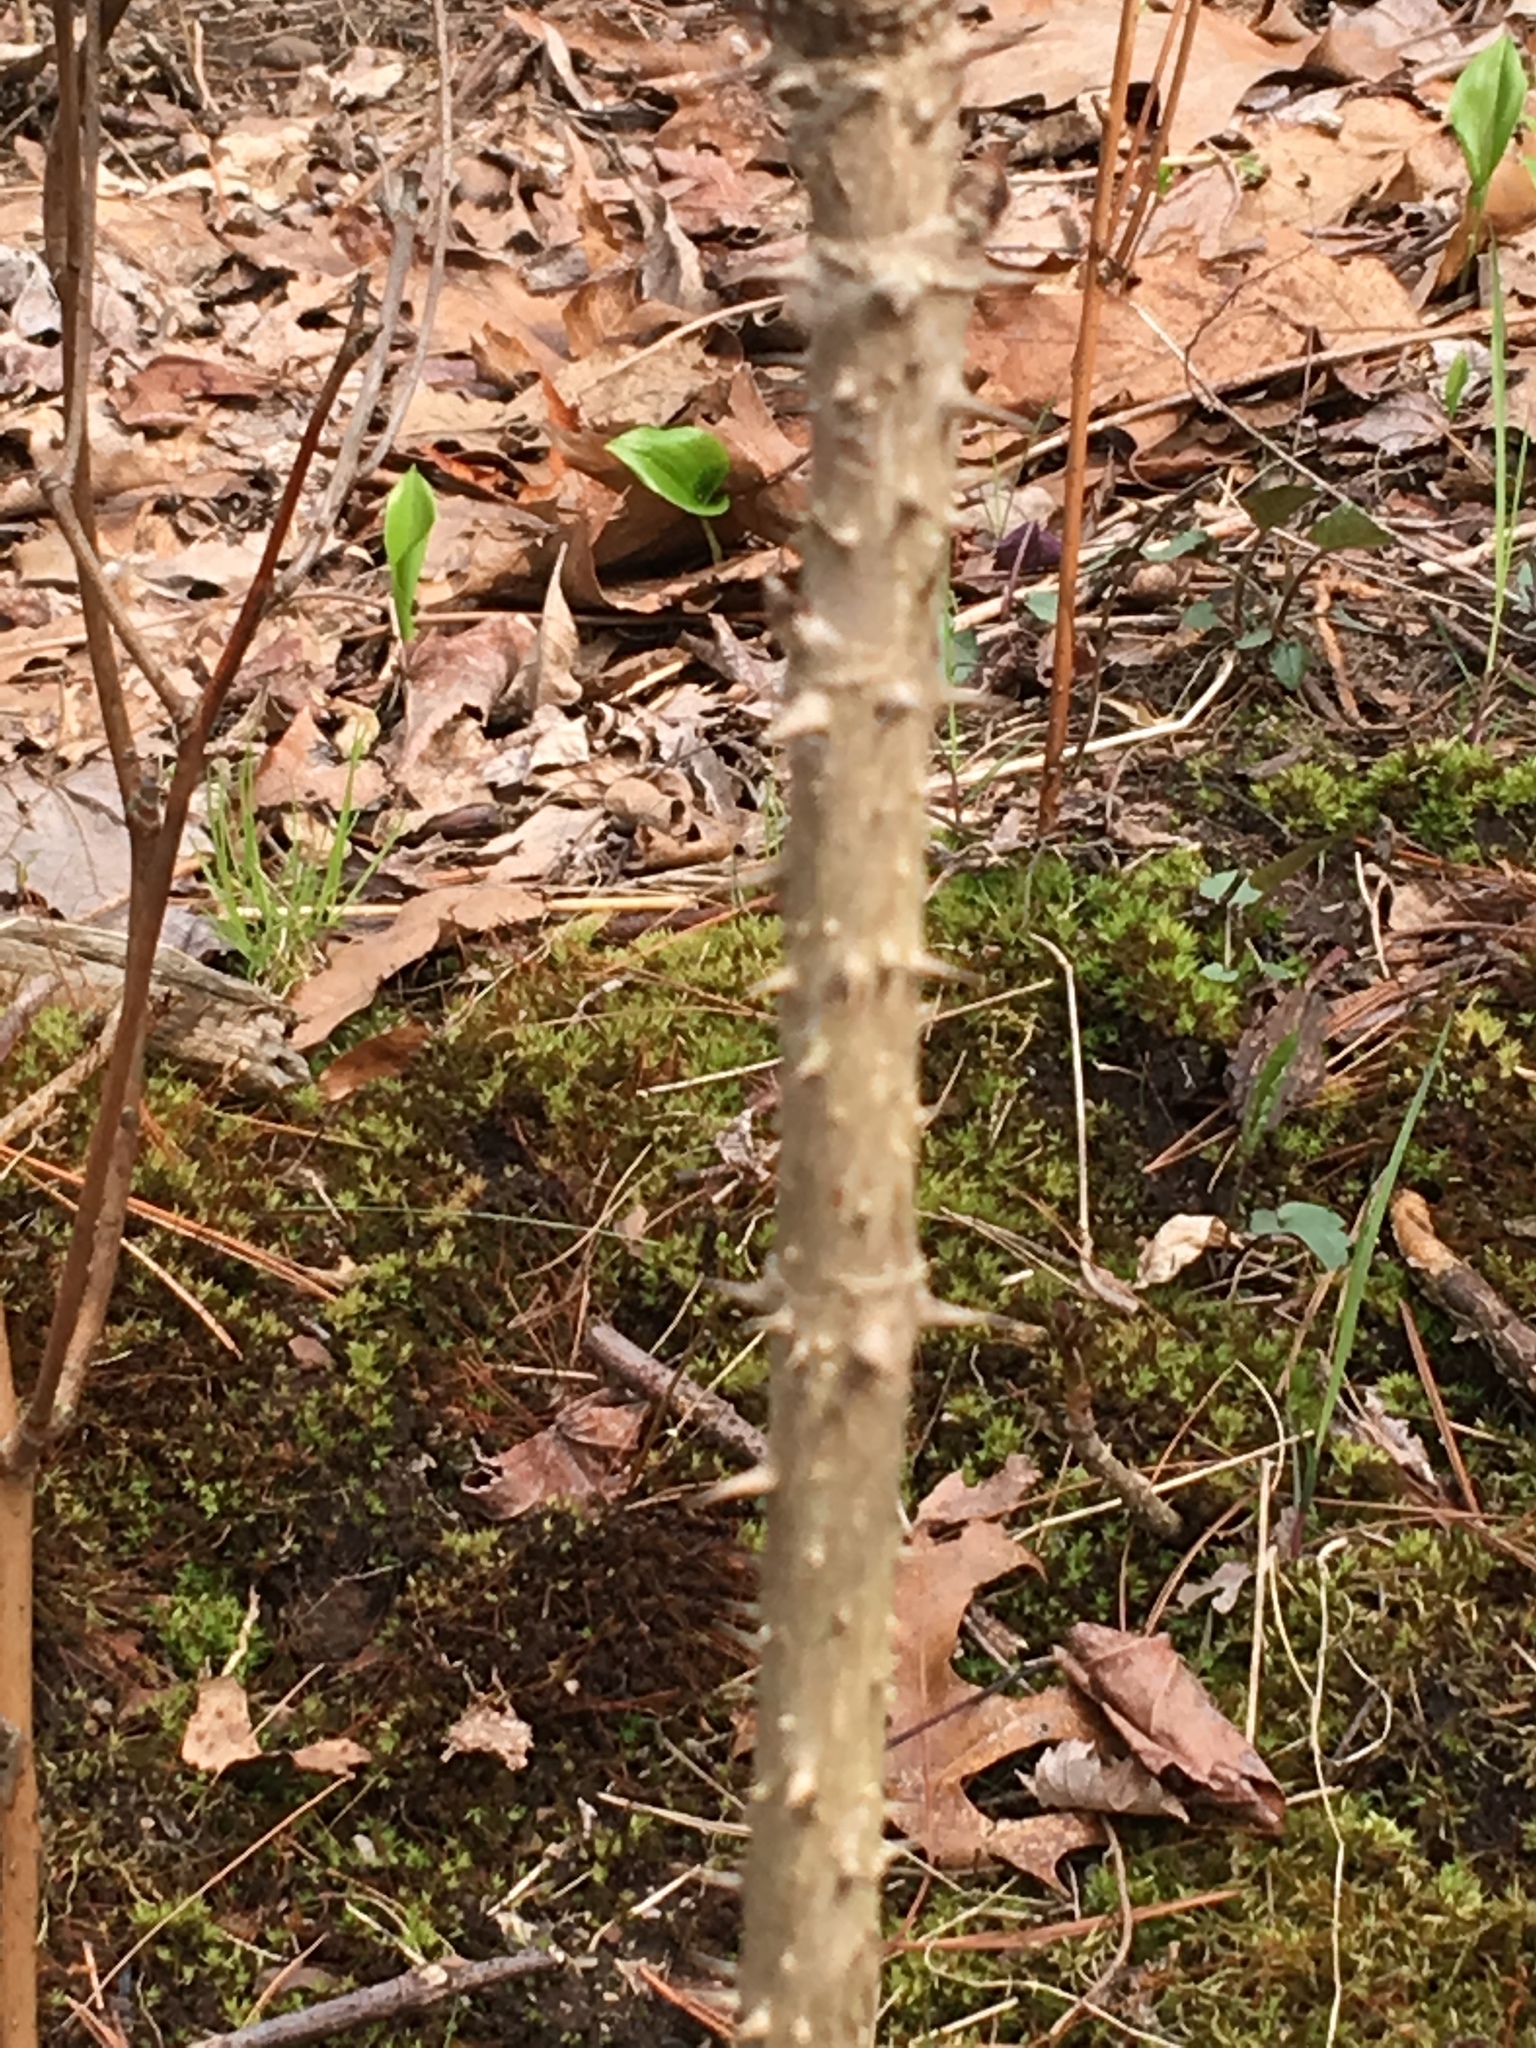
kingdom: Plantae
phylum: Tracheophyta
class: Magnoliopsida
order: Apiales
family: Araliaceae
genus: Aralia
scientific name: Aralia elata
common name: Japanese angelica-tree
